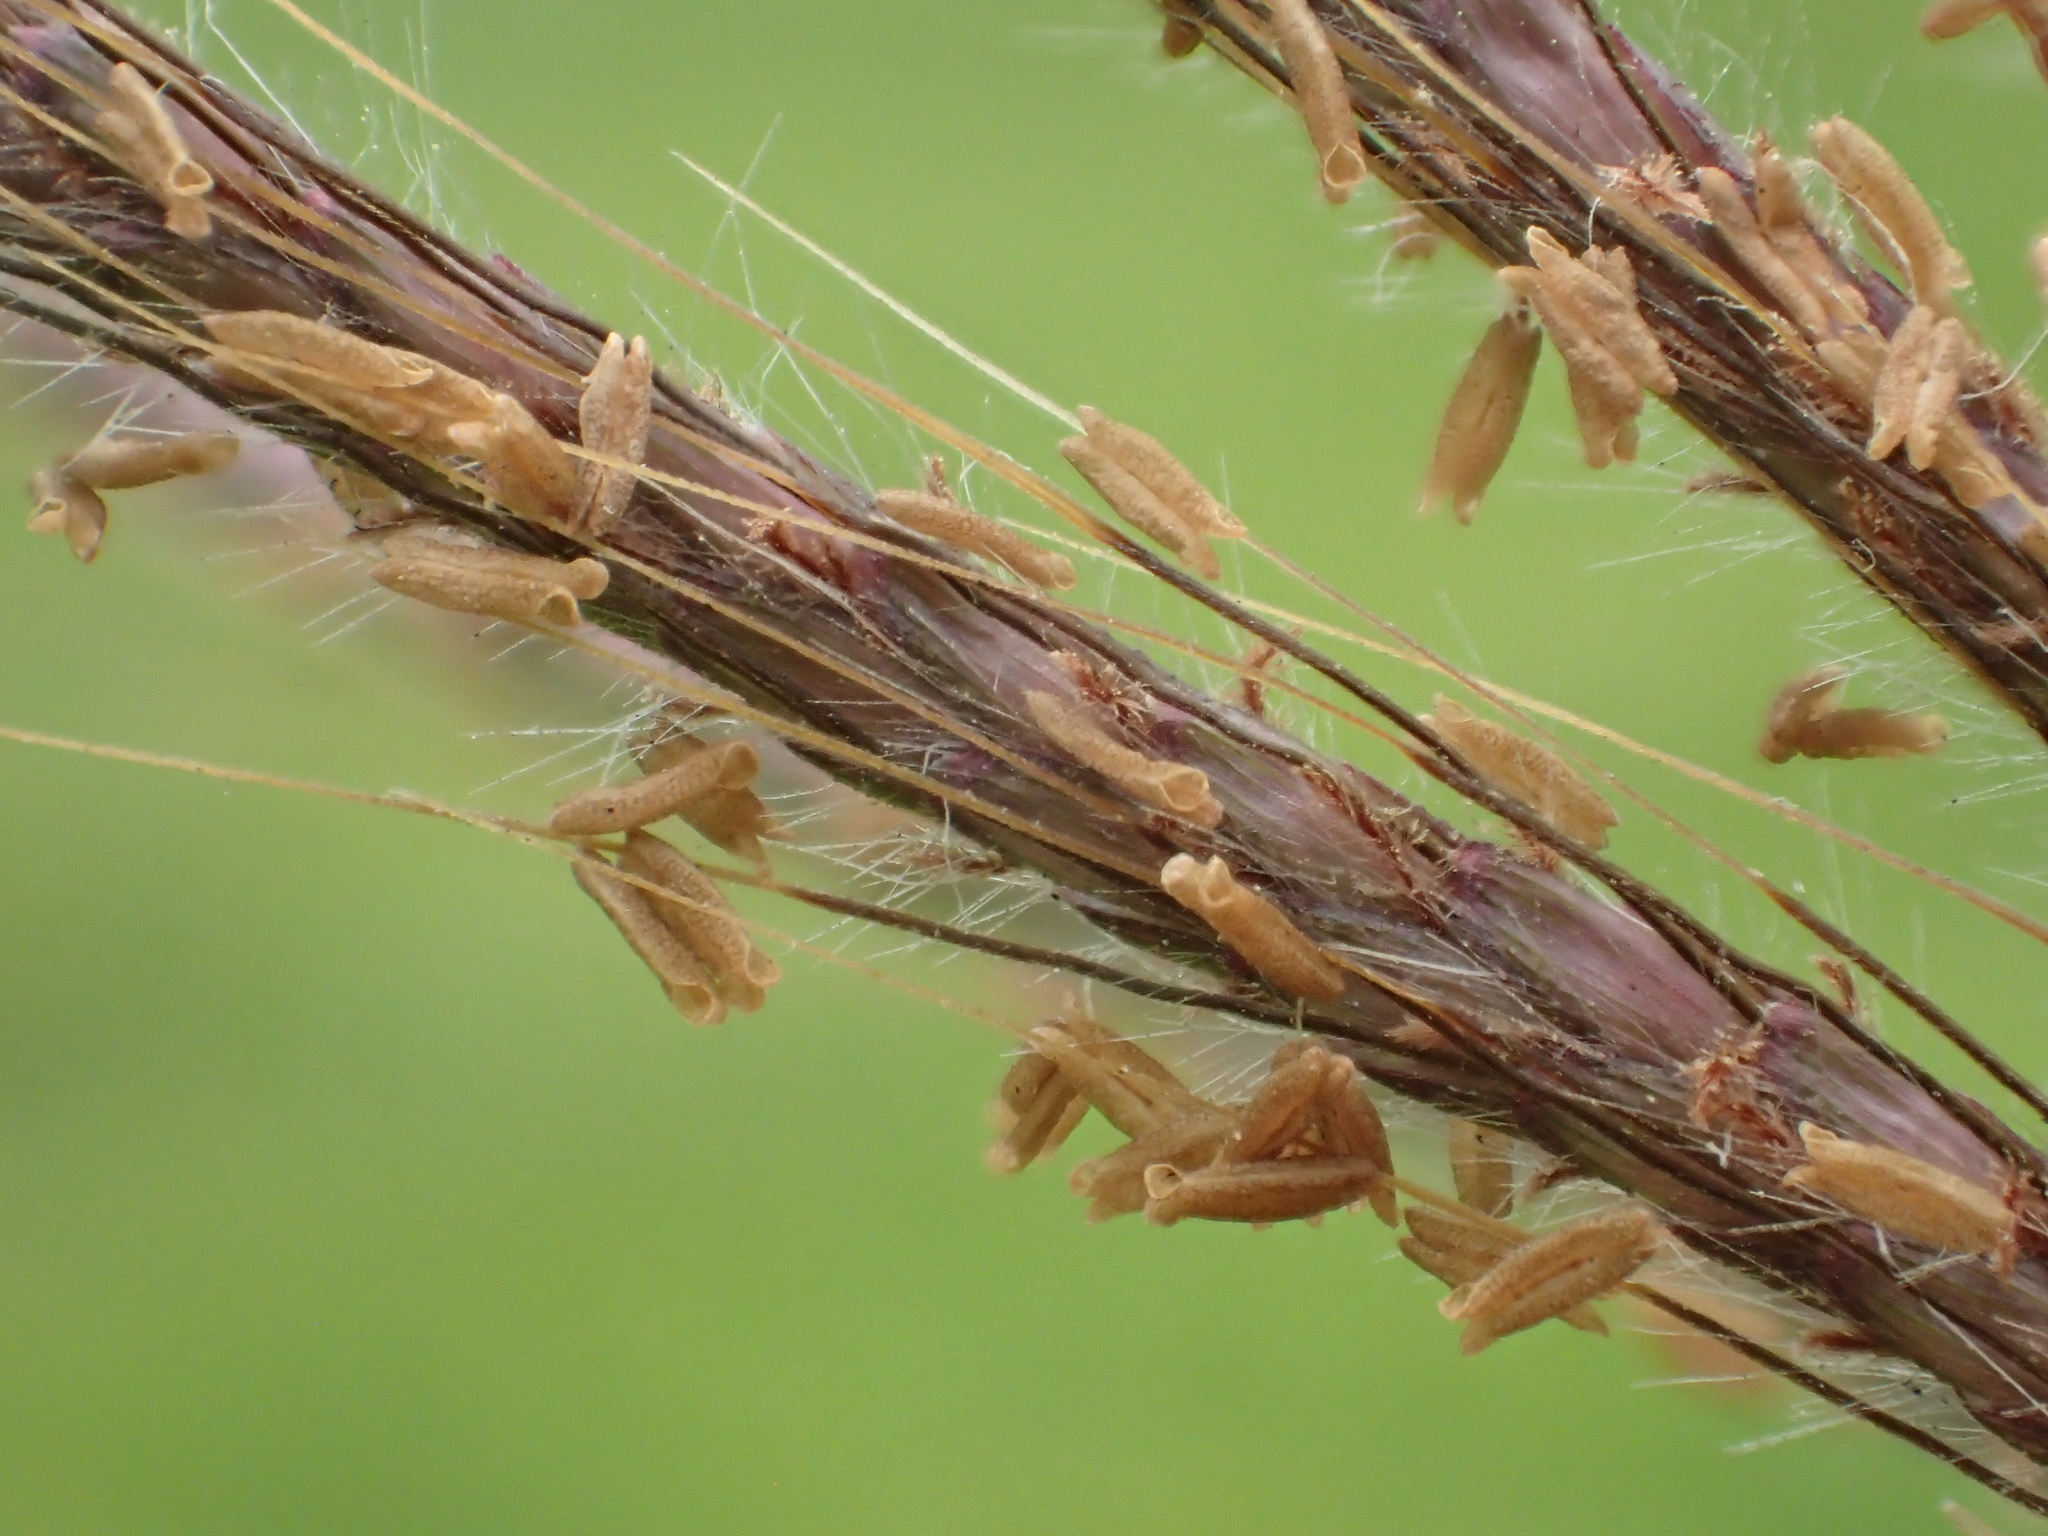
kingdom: Plantae
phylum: Tracheophyta
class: Liliopsida
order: Poales
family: Poaceae
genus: Dichanthium
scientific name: Dichanthium annulatum
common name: Kleberg's bluestem
